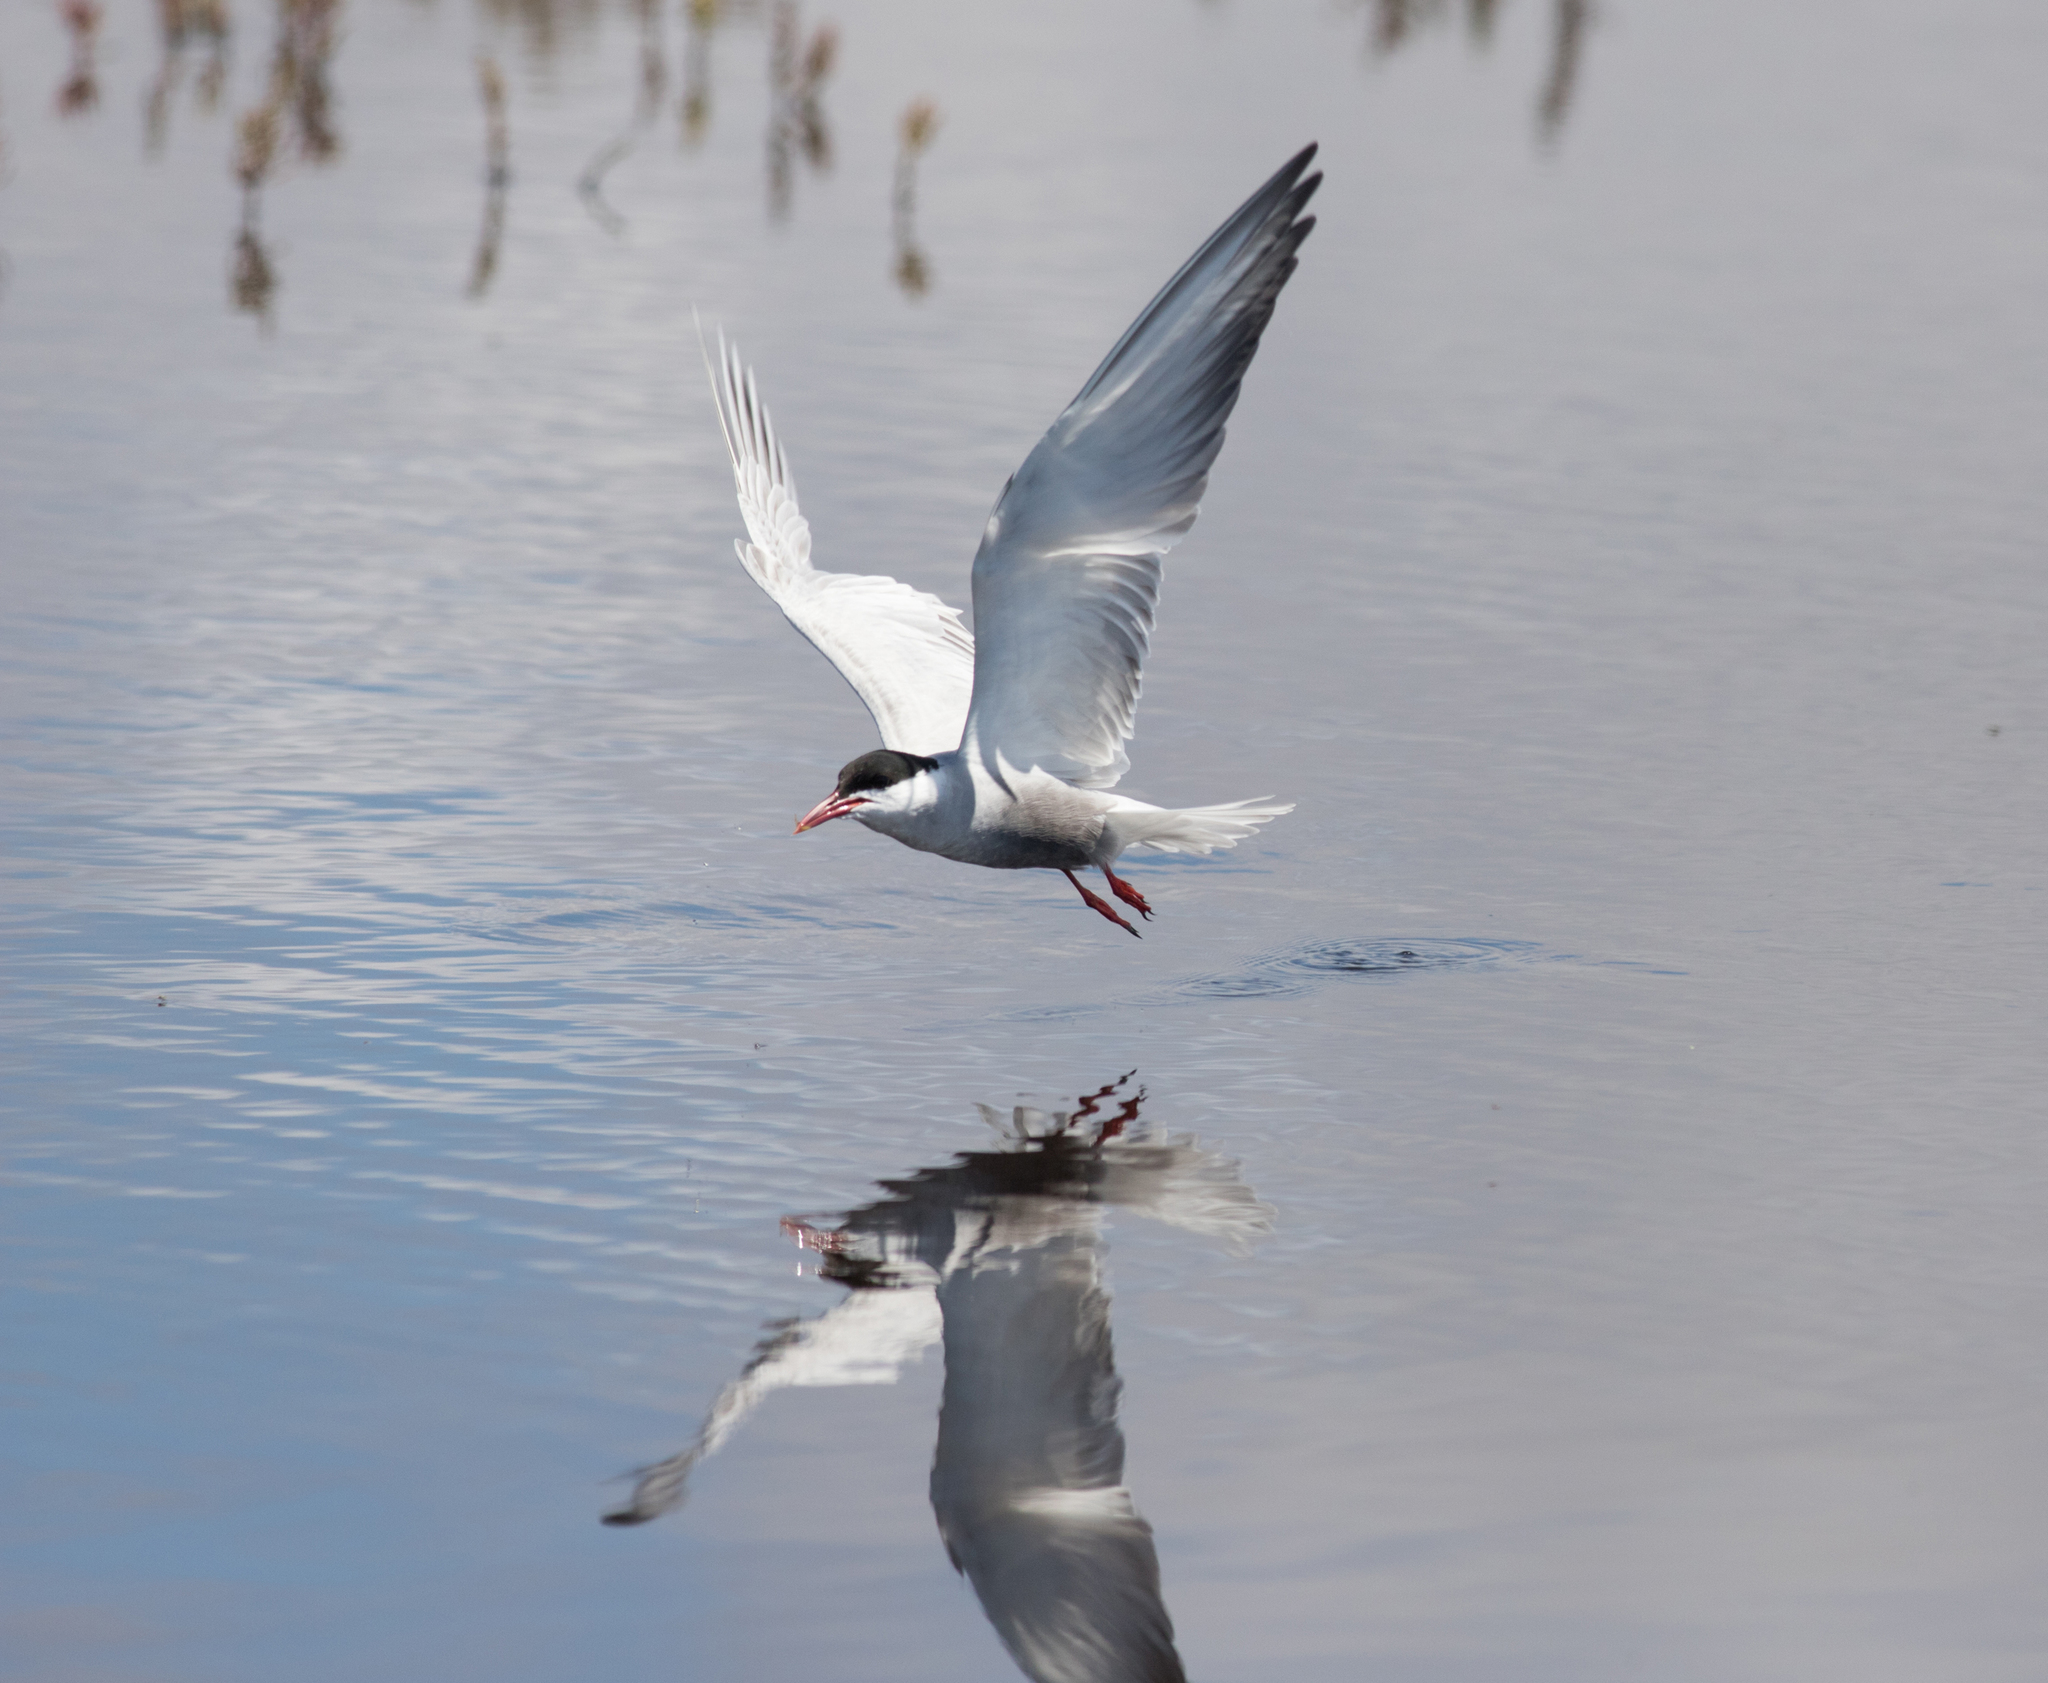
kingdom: Animalia
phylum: Chordata
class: Aves
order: Charadriiformes
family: Laridae
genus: Chlidonias
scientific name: Chlidonias hybrida
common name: Whiskered tern
